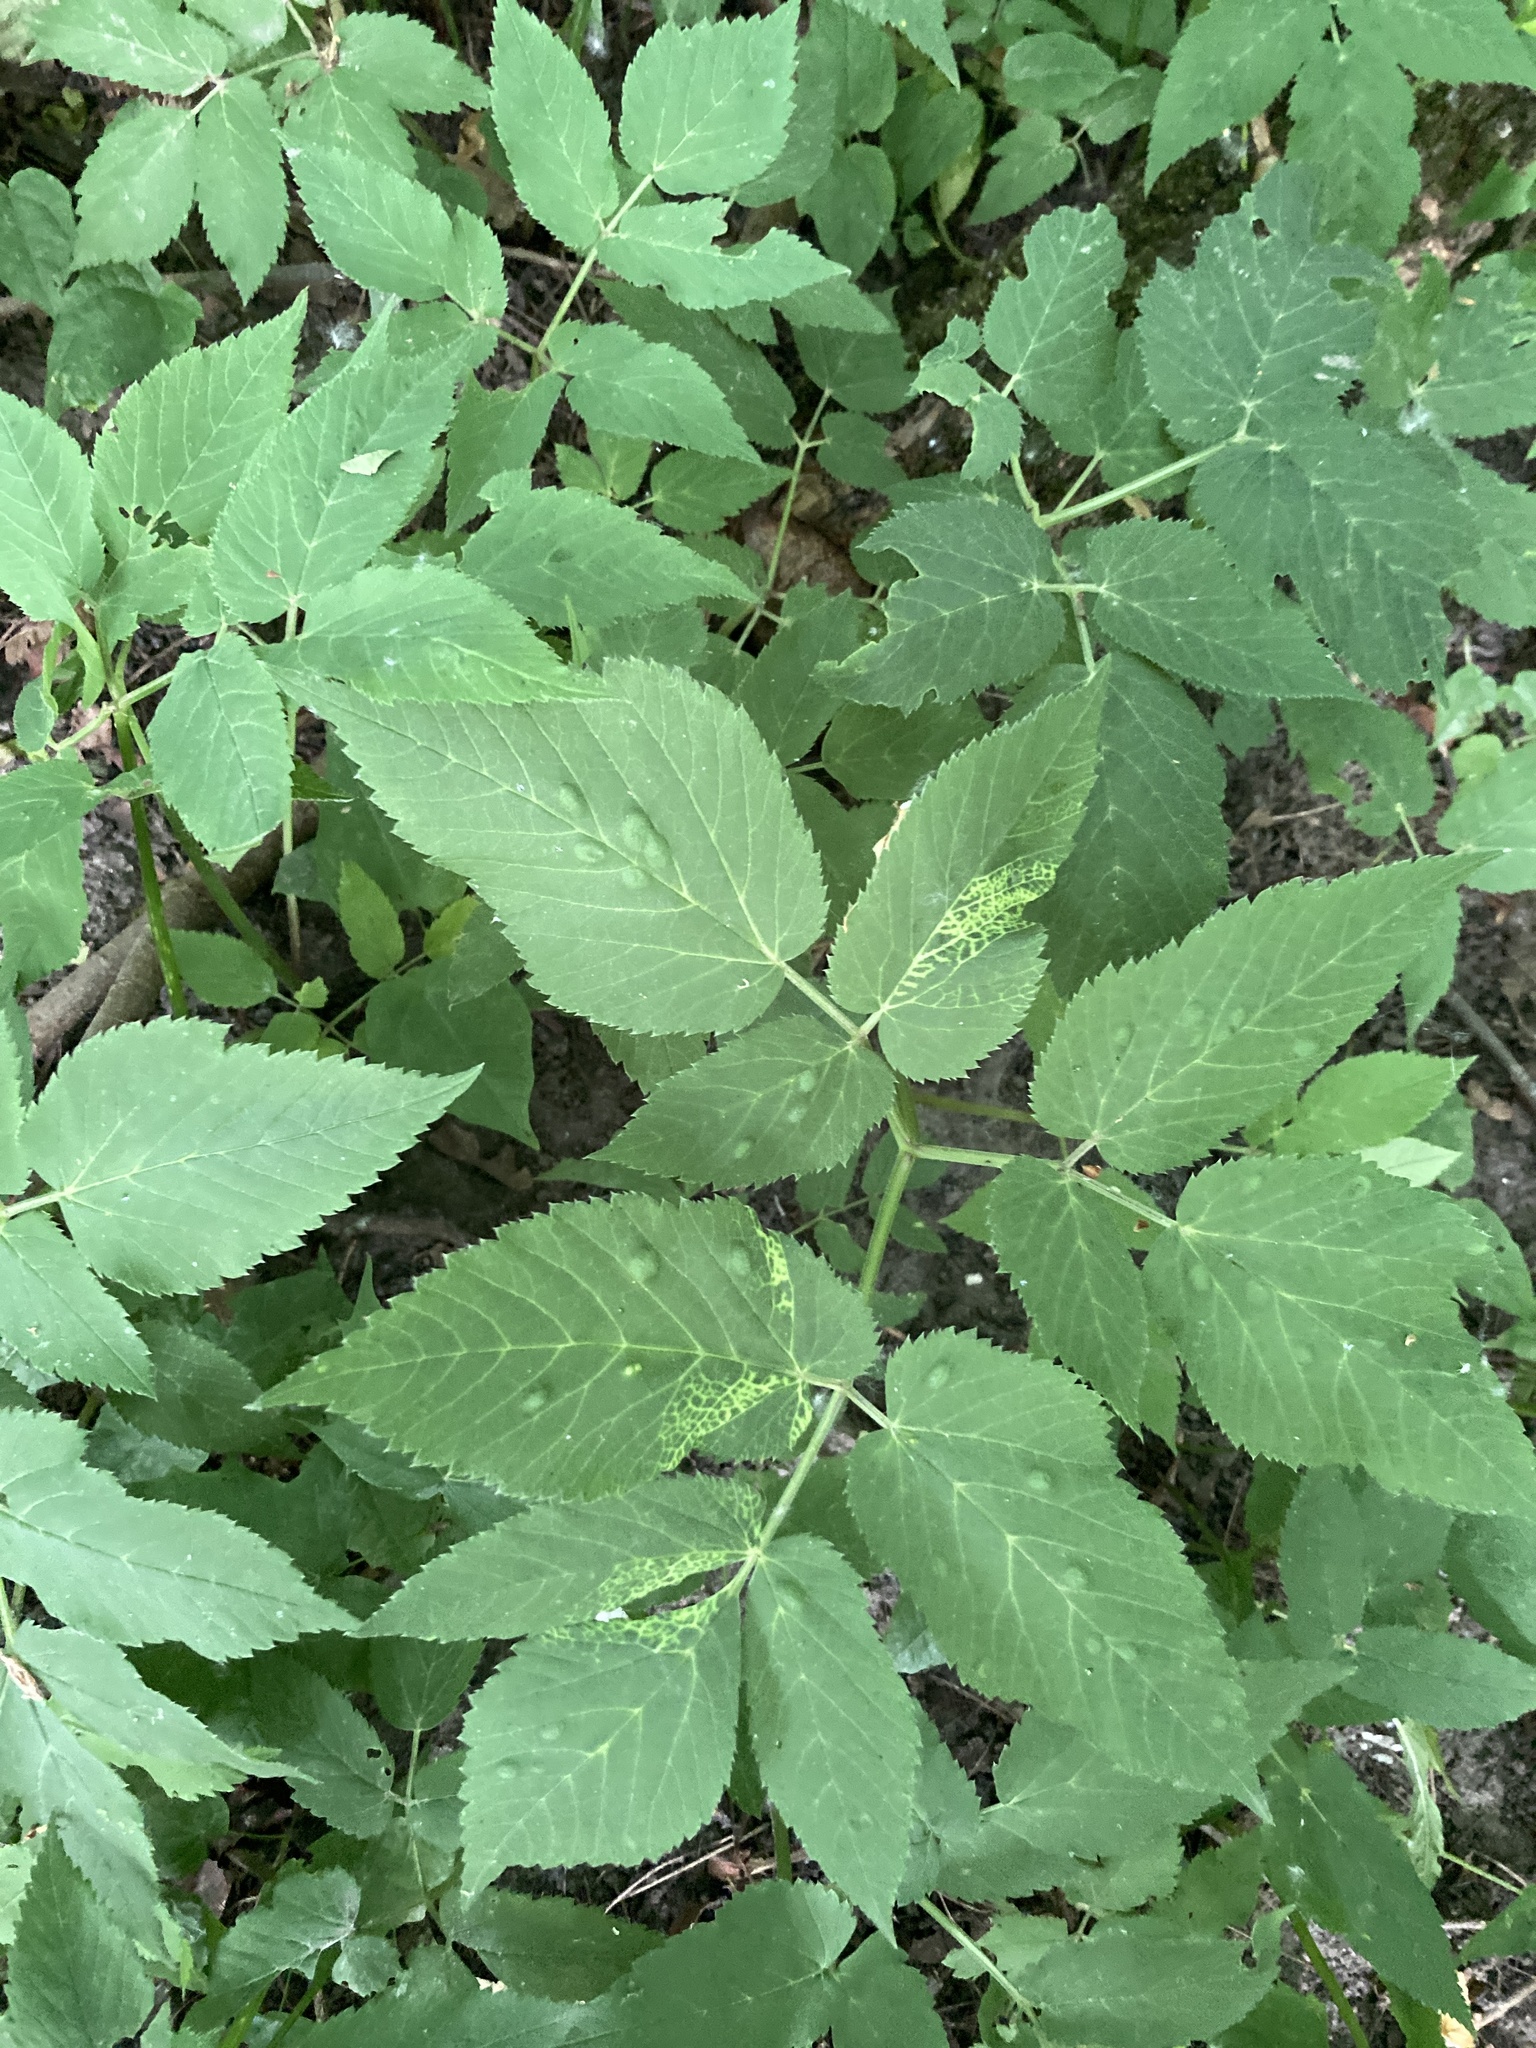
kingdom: Plantae
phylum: Tracheophyta
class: Magnoliopsida
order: Apiales
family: Apiaceae
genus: Aegopodium
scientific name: Aegopodium podagraria
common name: Ground-elder
